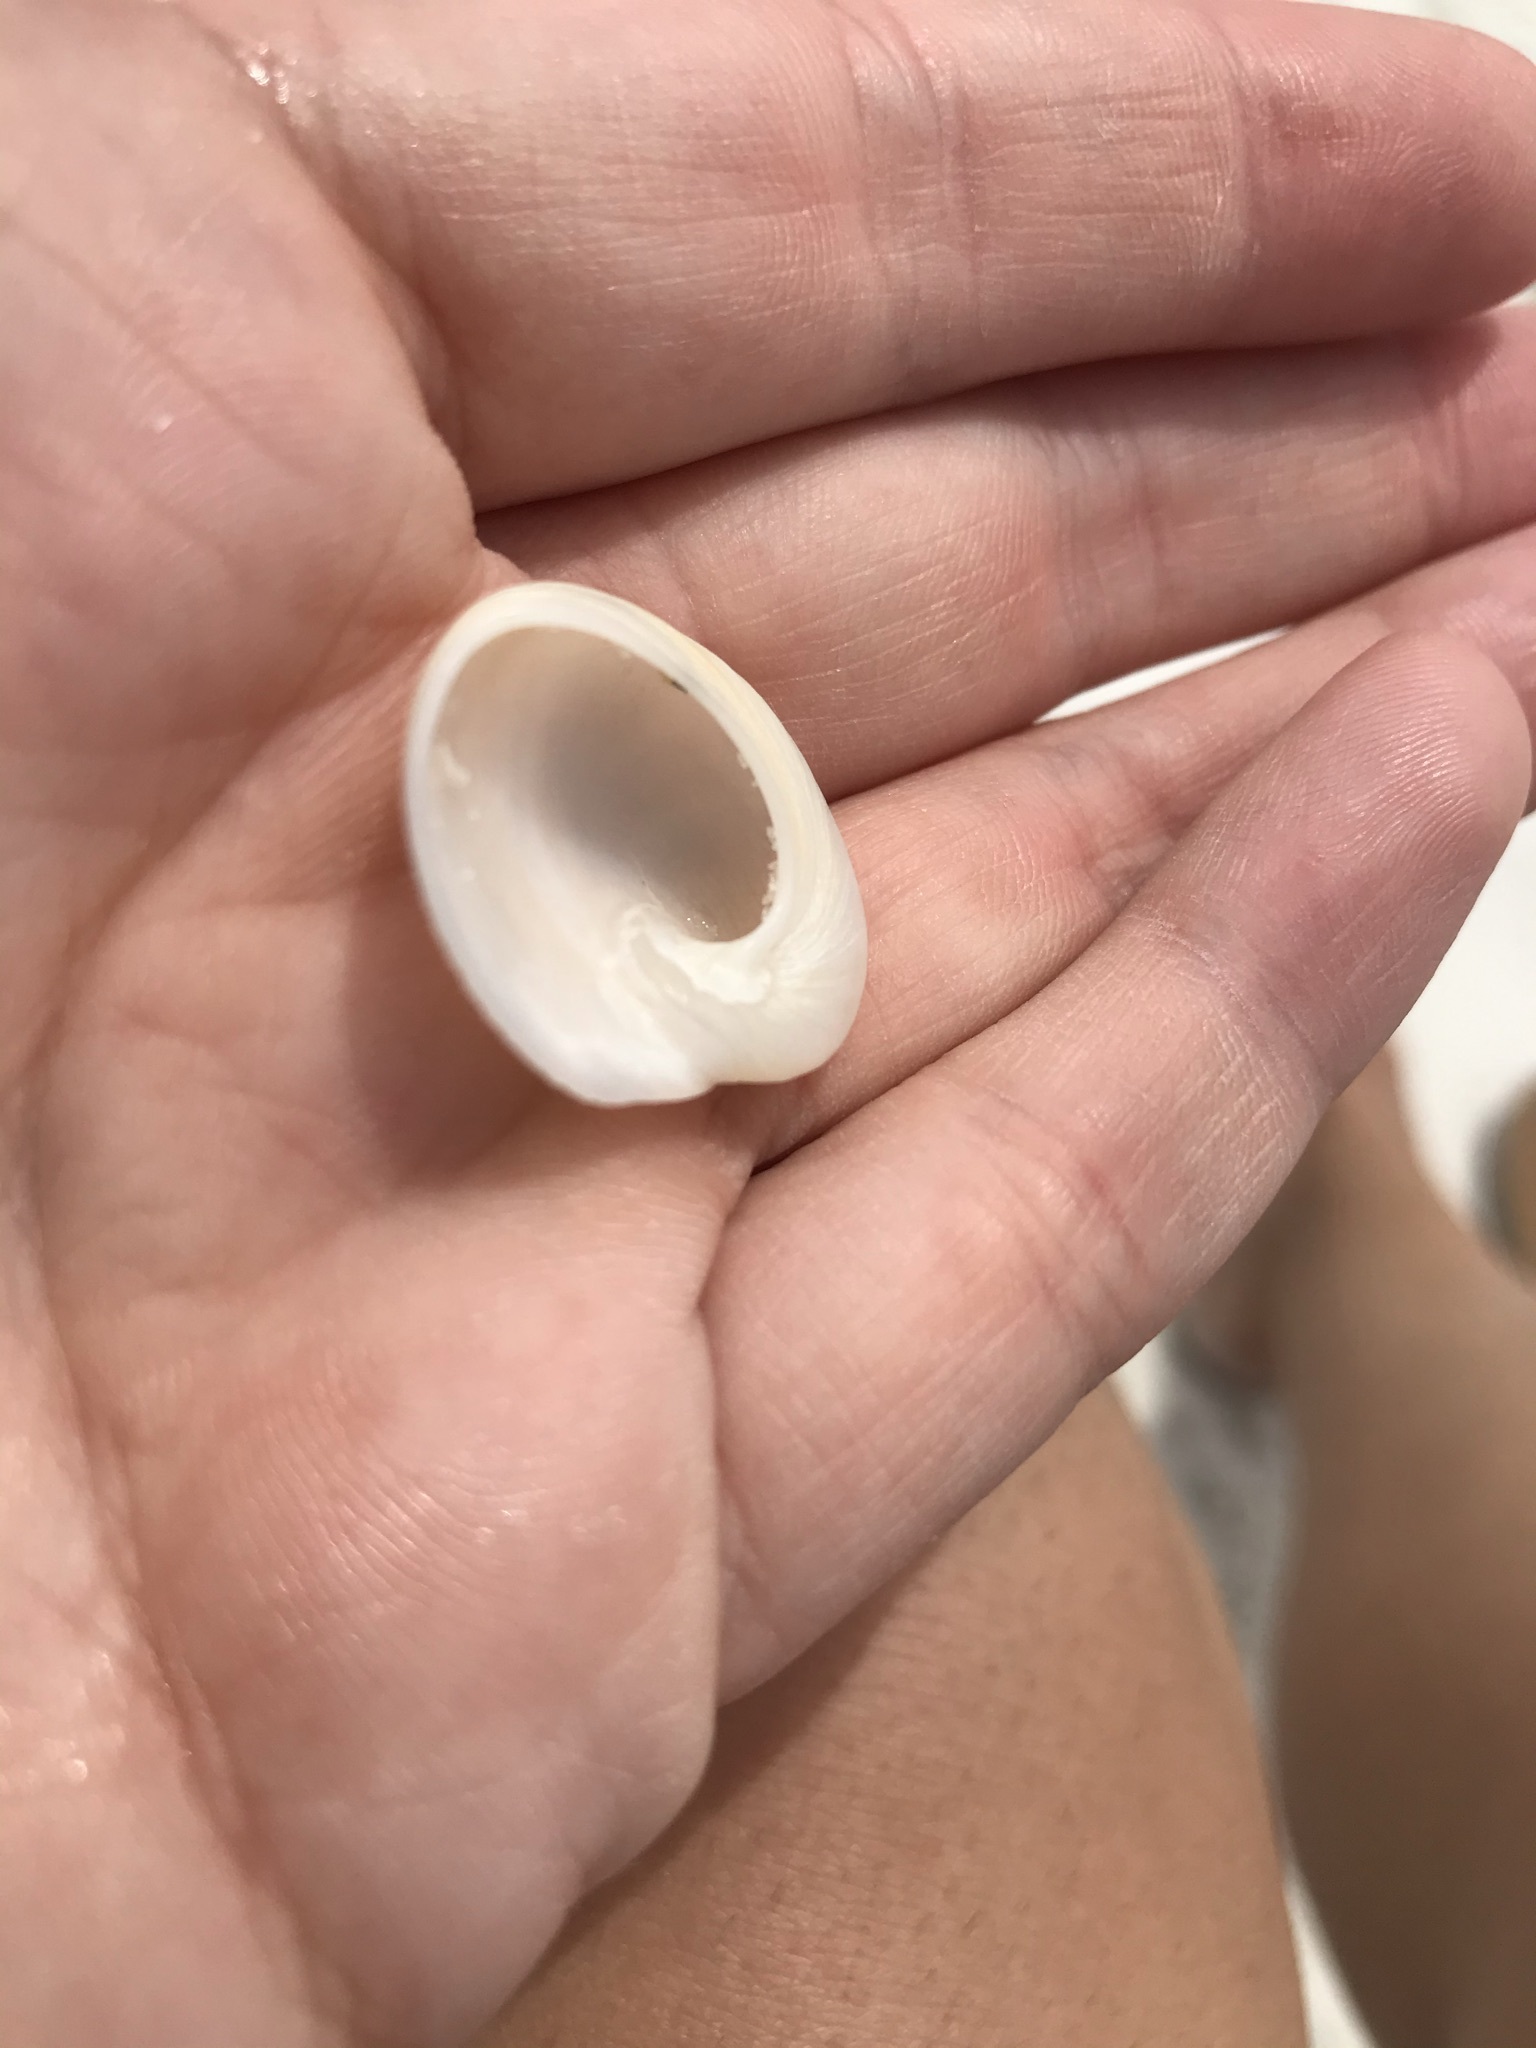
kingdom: Animalia
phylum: Mollusca
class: Gastropoda
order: Littorinimorpha
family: Naticidae
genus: Sinum
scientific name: Sinum perspectivum
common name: White baby ear
